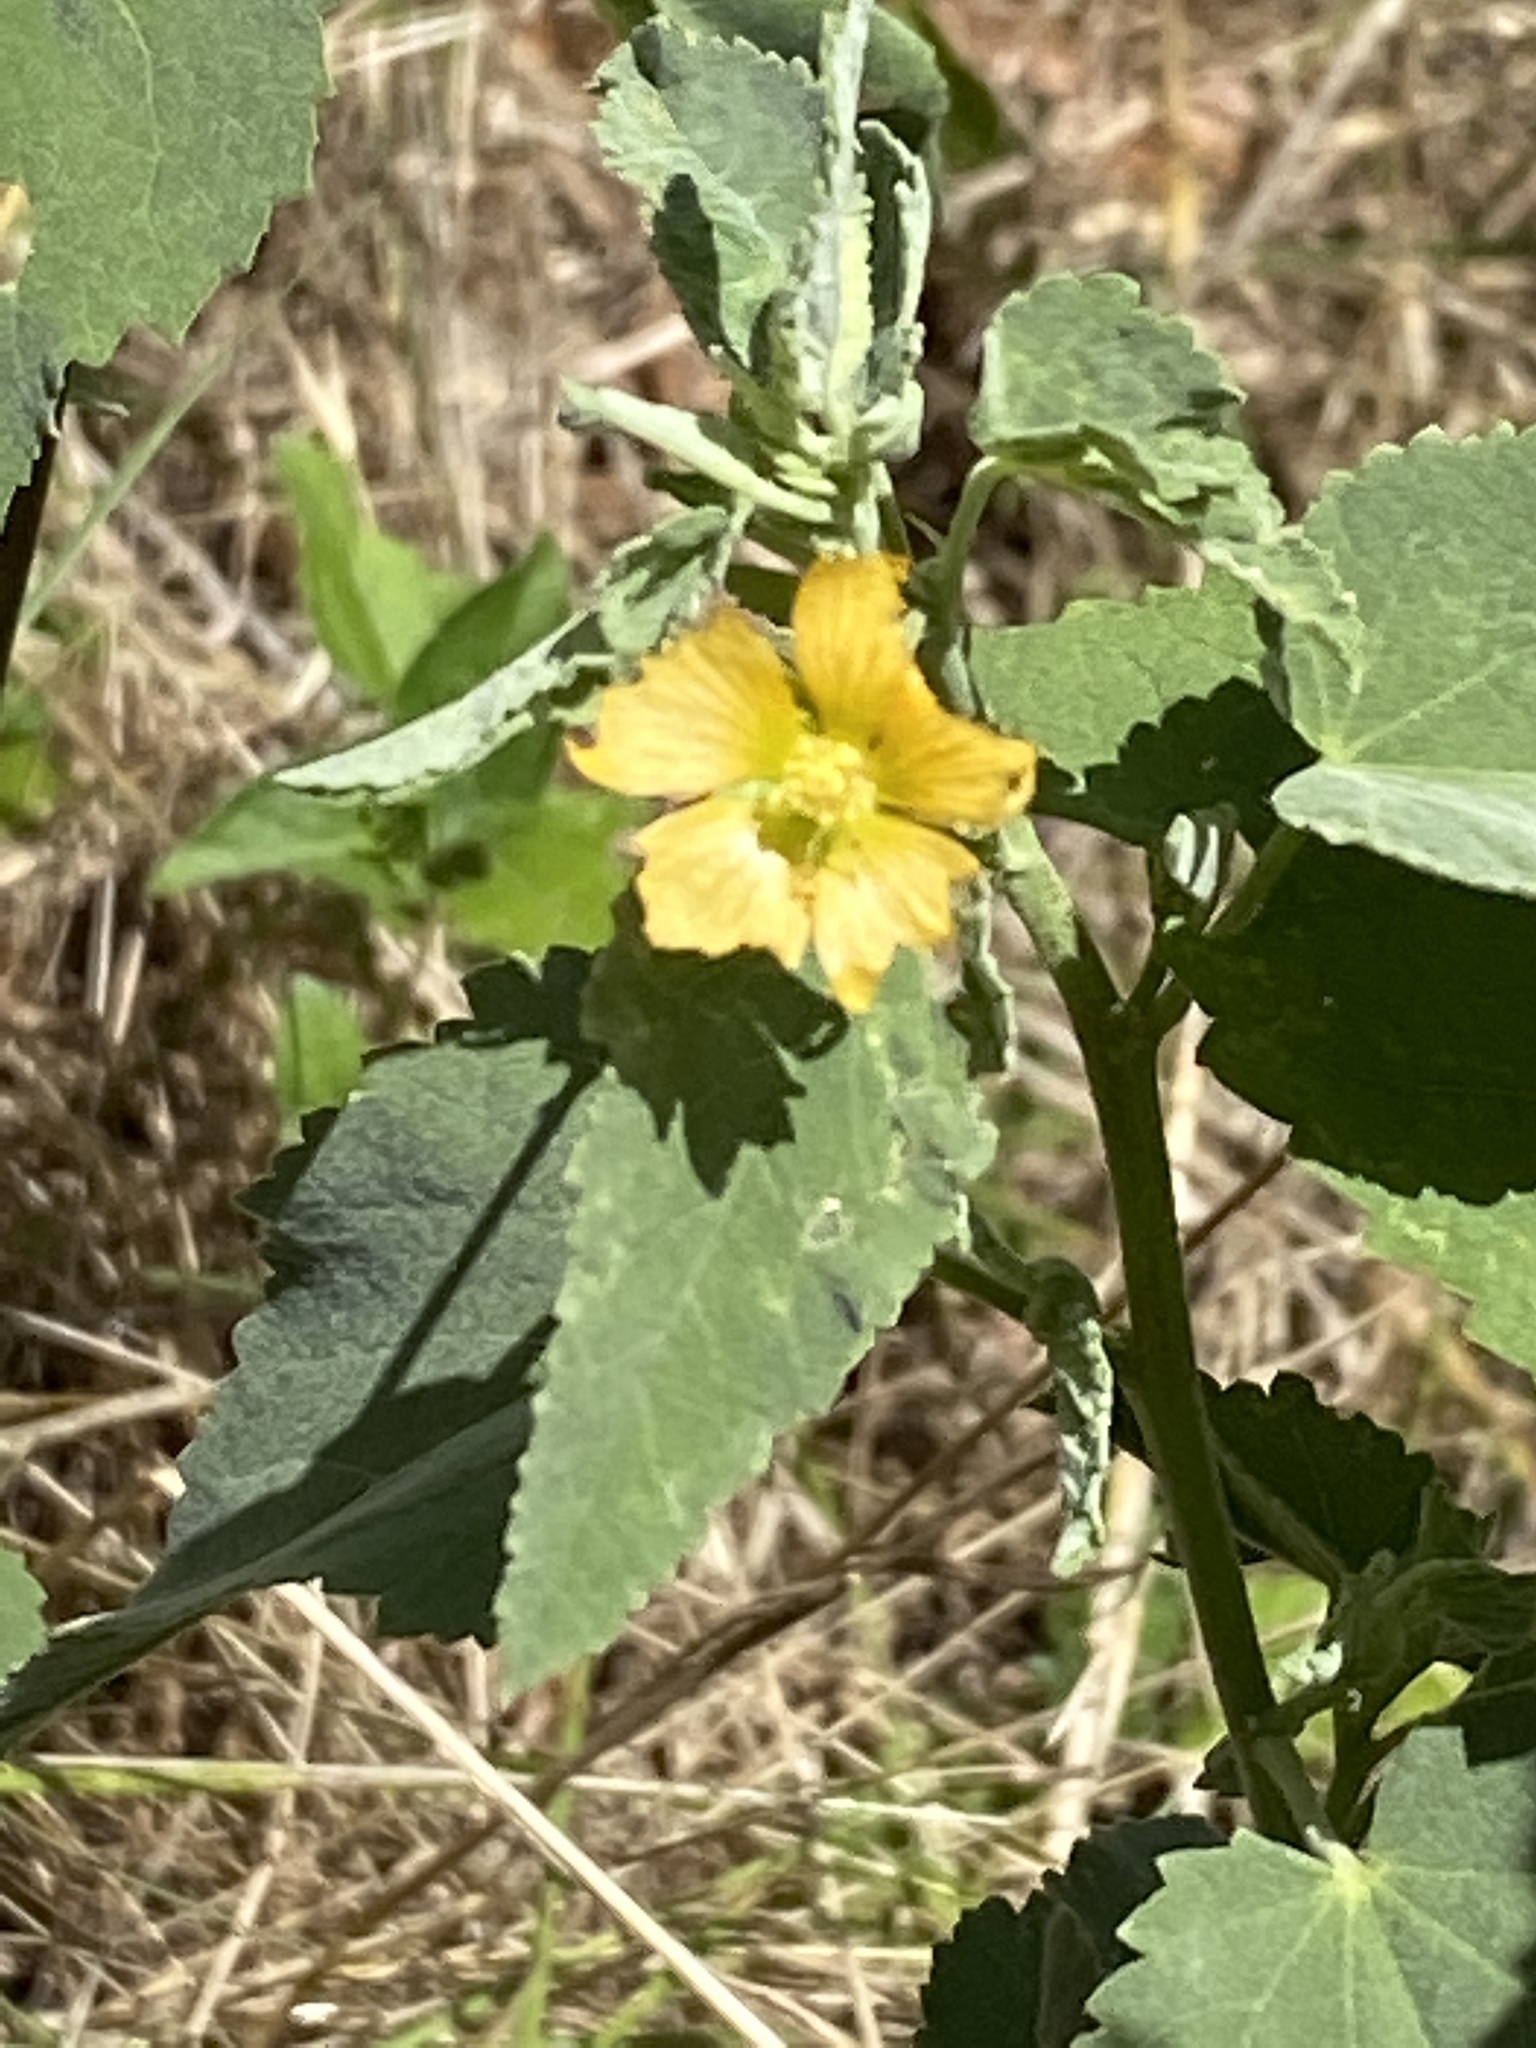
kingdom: Plantae
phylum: Tracheophyta
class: Magnoliopsida
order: Malvales
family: Malvaceae
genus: Abutilon
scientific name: Abutilon fruticosum
